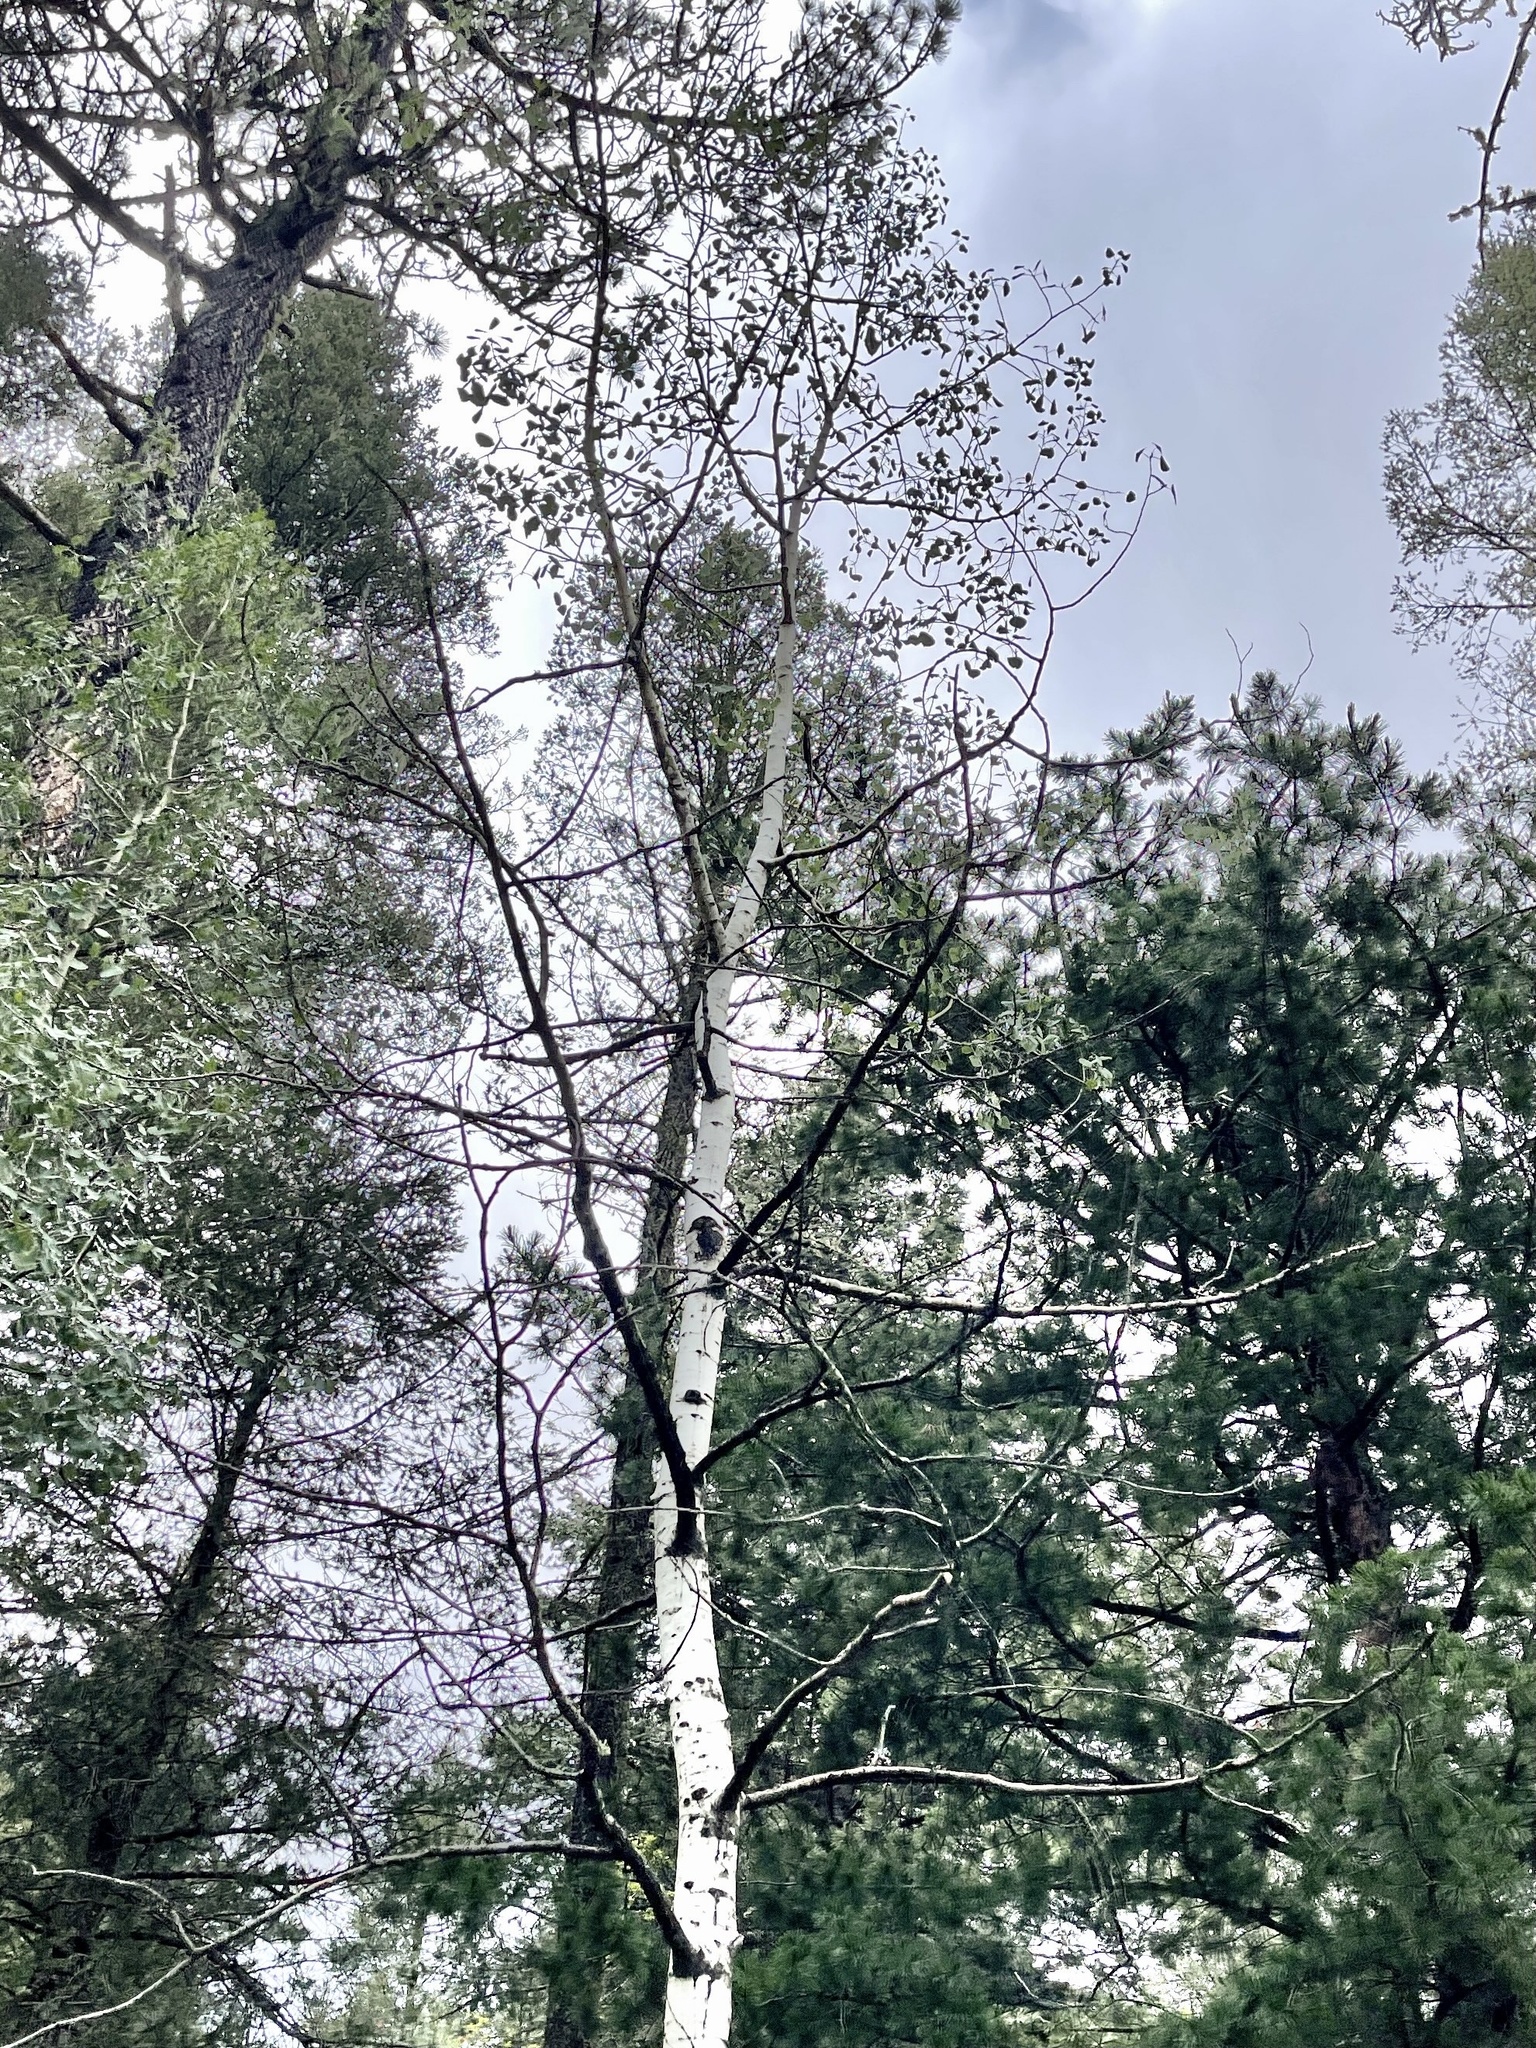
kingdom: Plantae
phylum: Tracheophyta
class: Magnoliopsida
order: Malpighiales
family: Salicaceae
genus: Populus
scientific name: Populus tremuloides
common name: Quaking aspen
